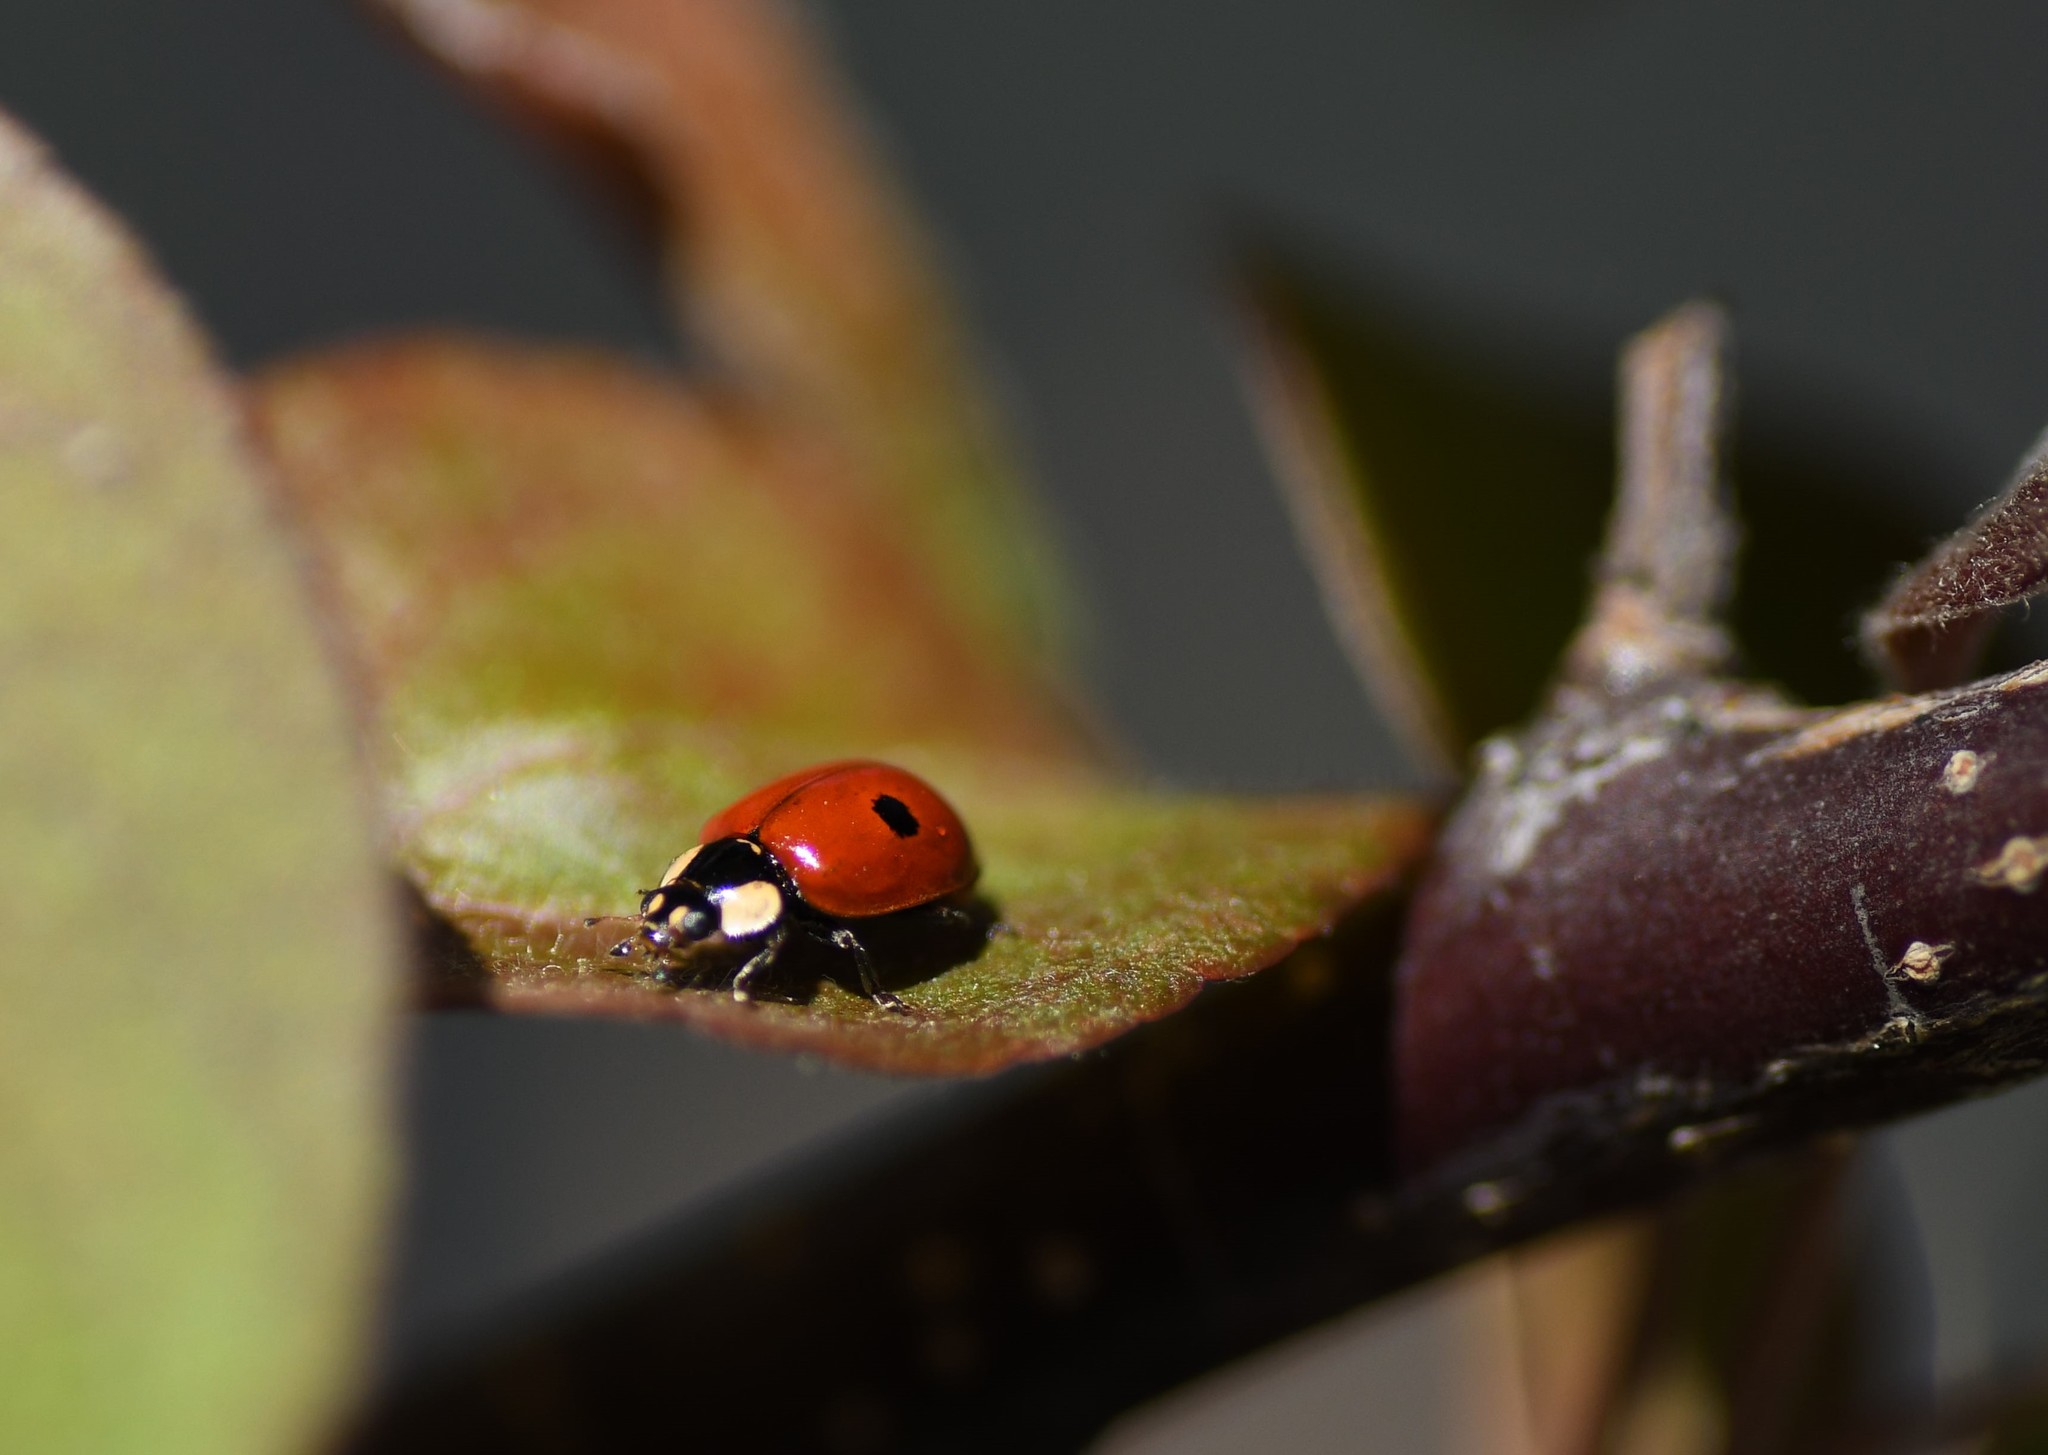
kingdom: Animalia
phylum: Arthropoda
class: Insecta
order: Coleoptera
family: Coccinellidae
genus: Adalia
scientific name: Adalia bipunctata
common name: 2-spot ladybird
